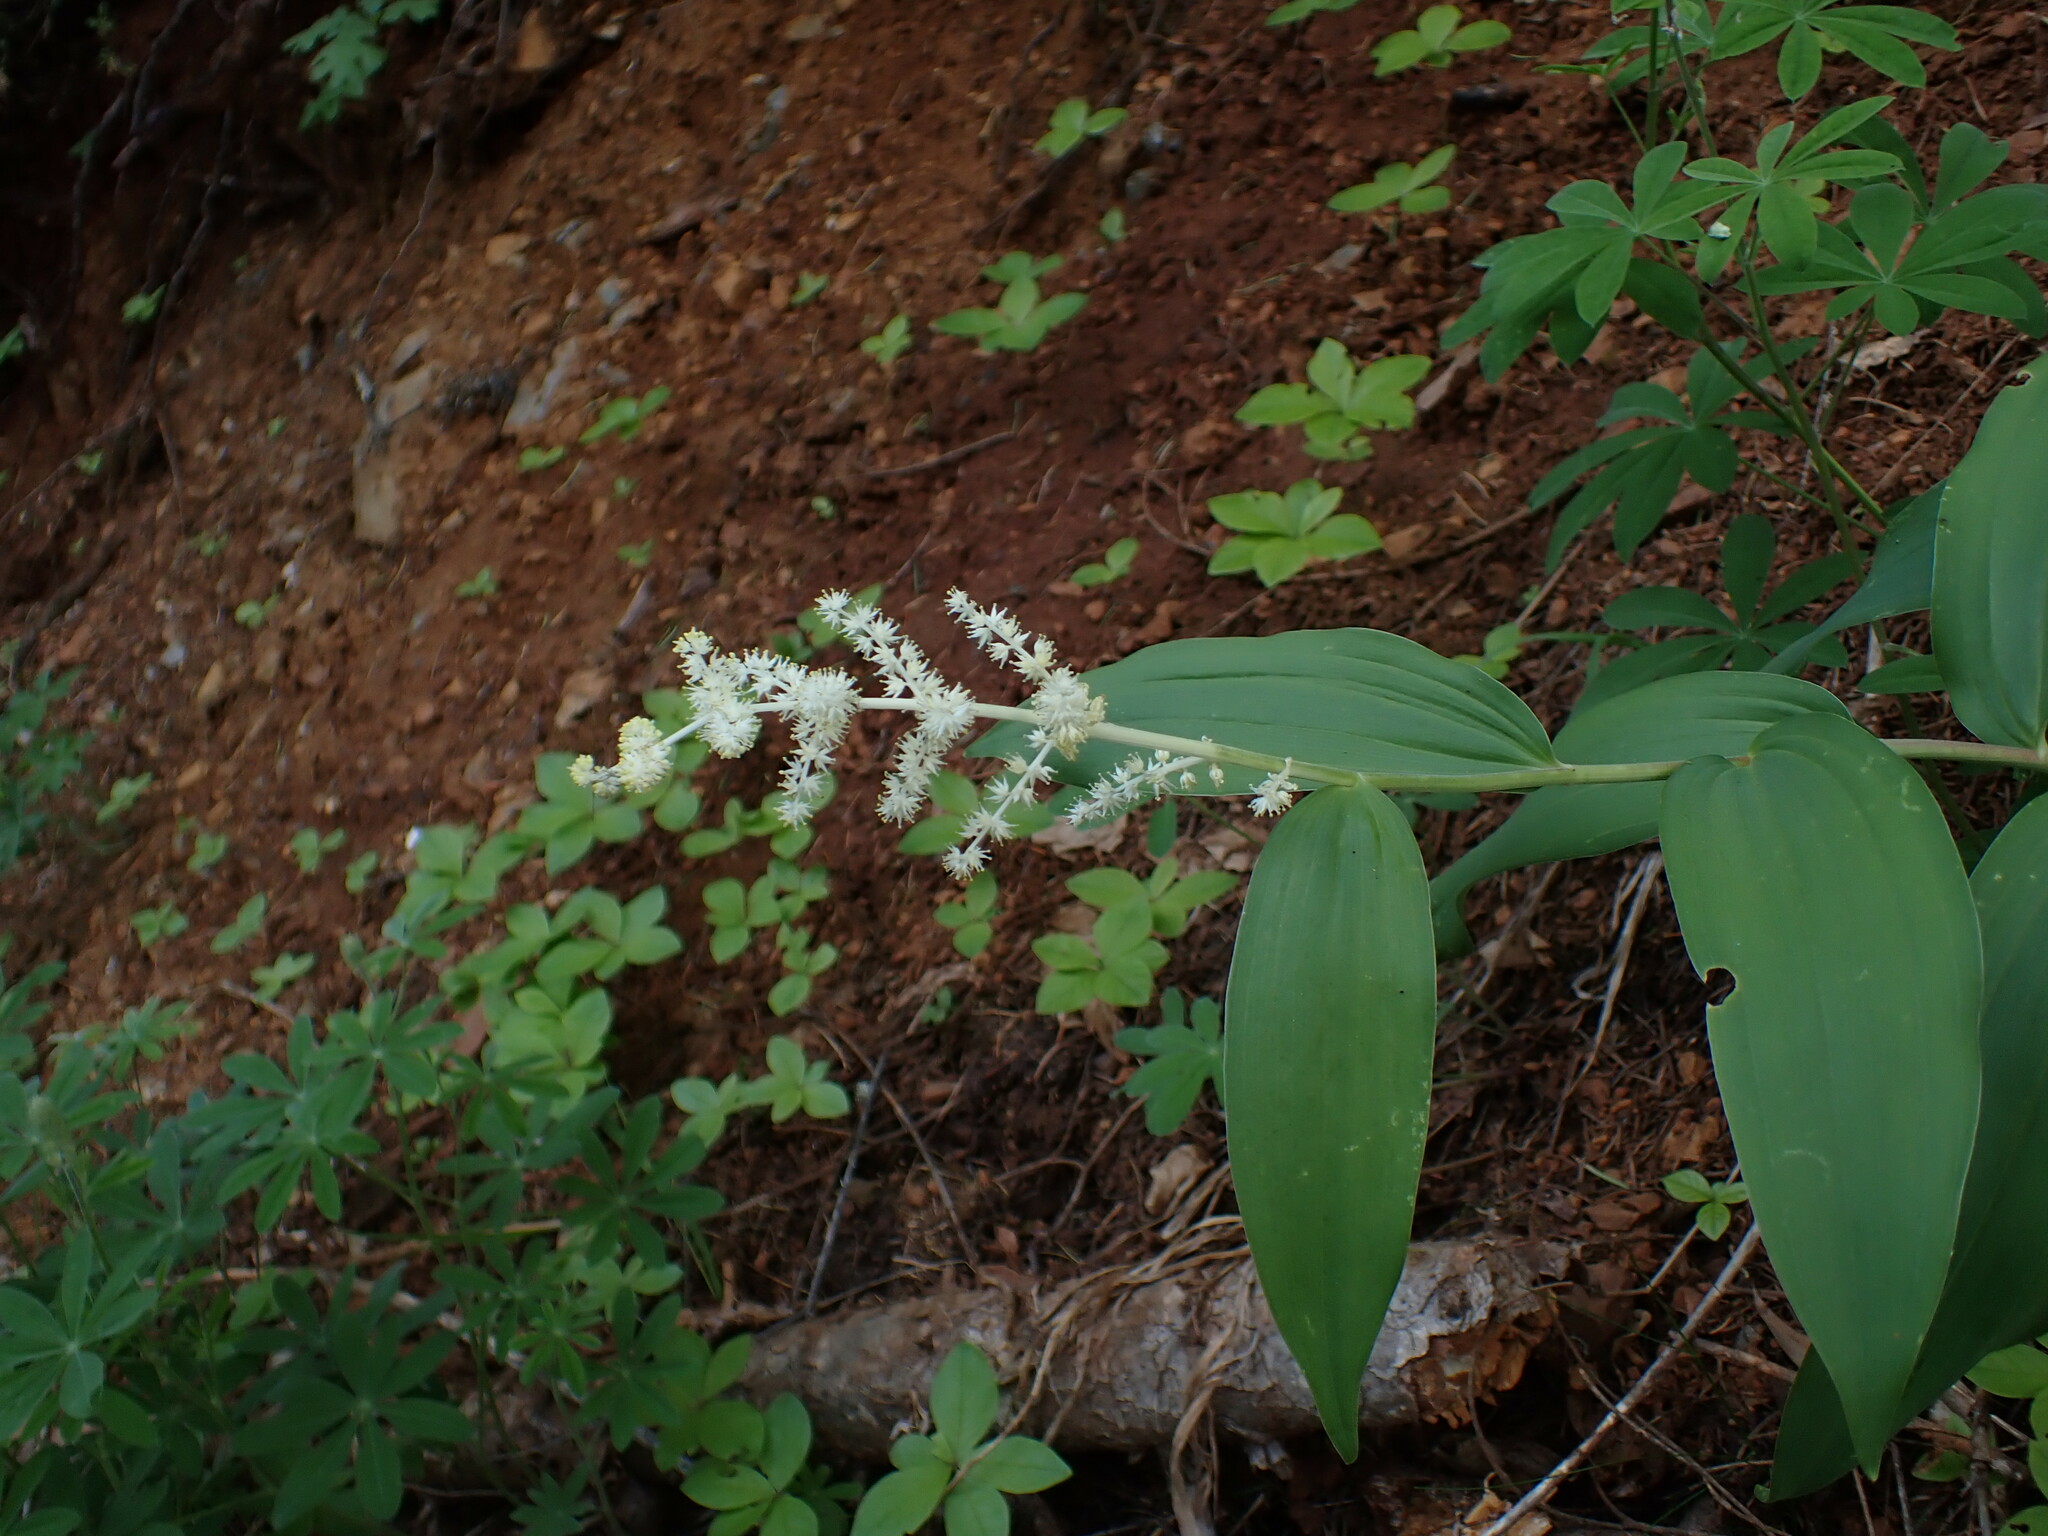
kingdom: Plantae
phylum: Tracheophyta
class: Liliopsida
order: Asparagales
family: Asparagaceae
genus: Maianthemum
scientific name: Maianthemum racemosum
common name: False spikenard
